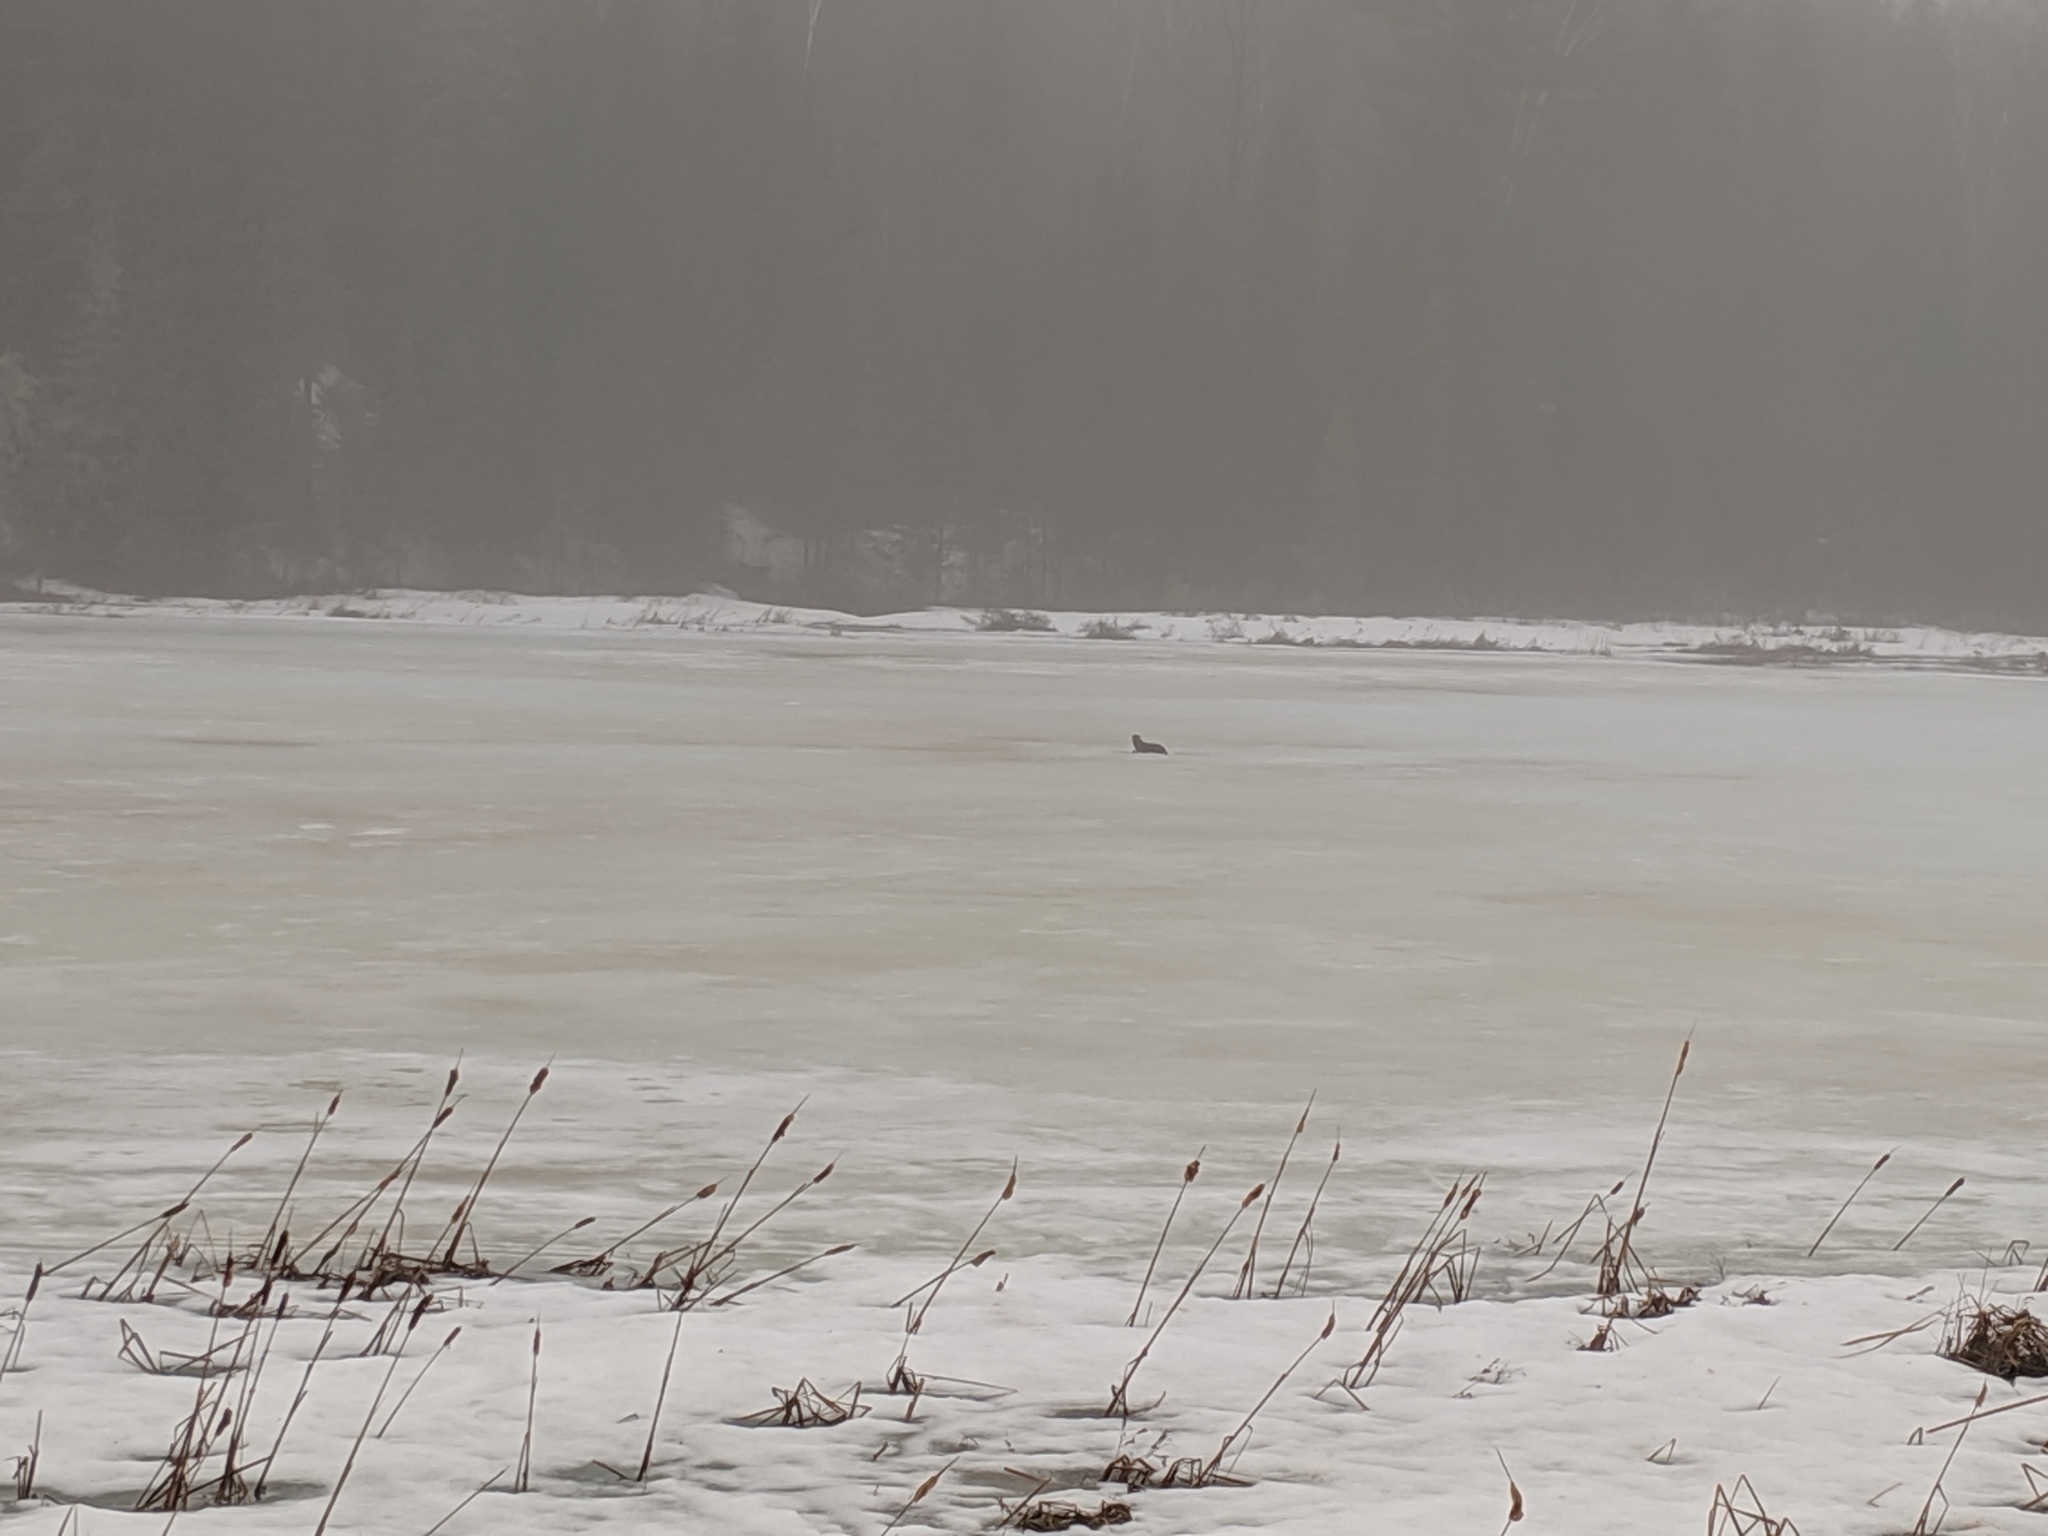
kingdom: Animalia
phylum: Chordata
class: Mammalia
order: Carnivora
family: Mustelidae
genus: Lontra
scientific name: Lontra canadensis
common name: North american river otter
